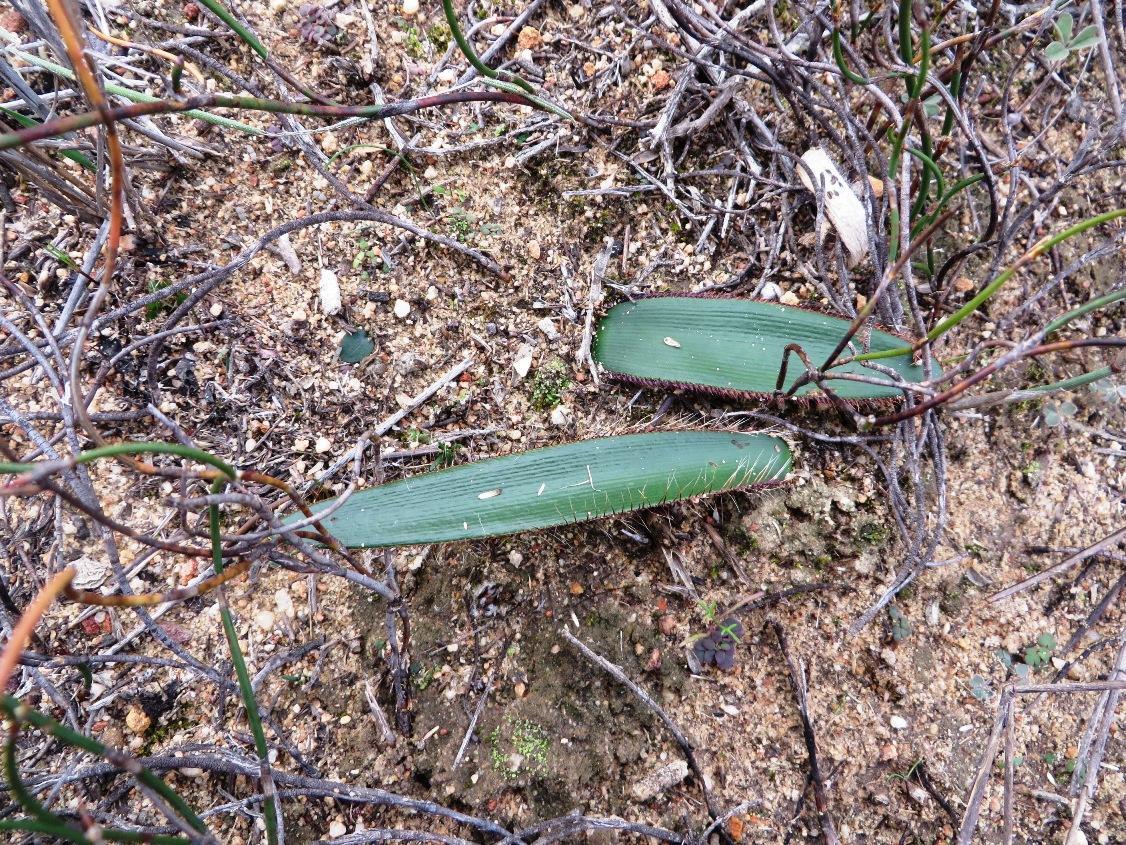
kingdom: Plantae
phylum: Tracheophyta
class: Liliopsida
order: Asparagales
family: Amaryllidaceae
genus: Crossyne
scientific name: Crossyne guttata
